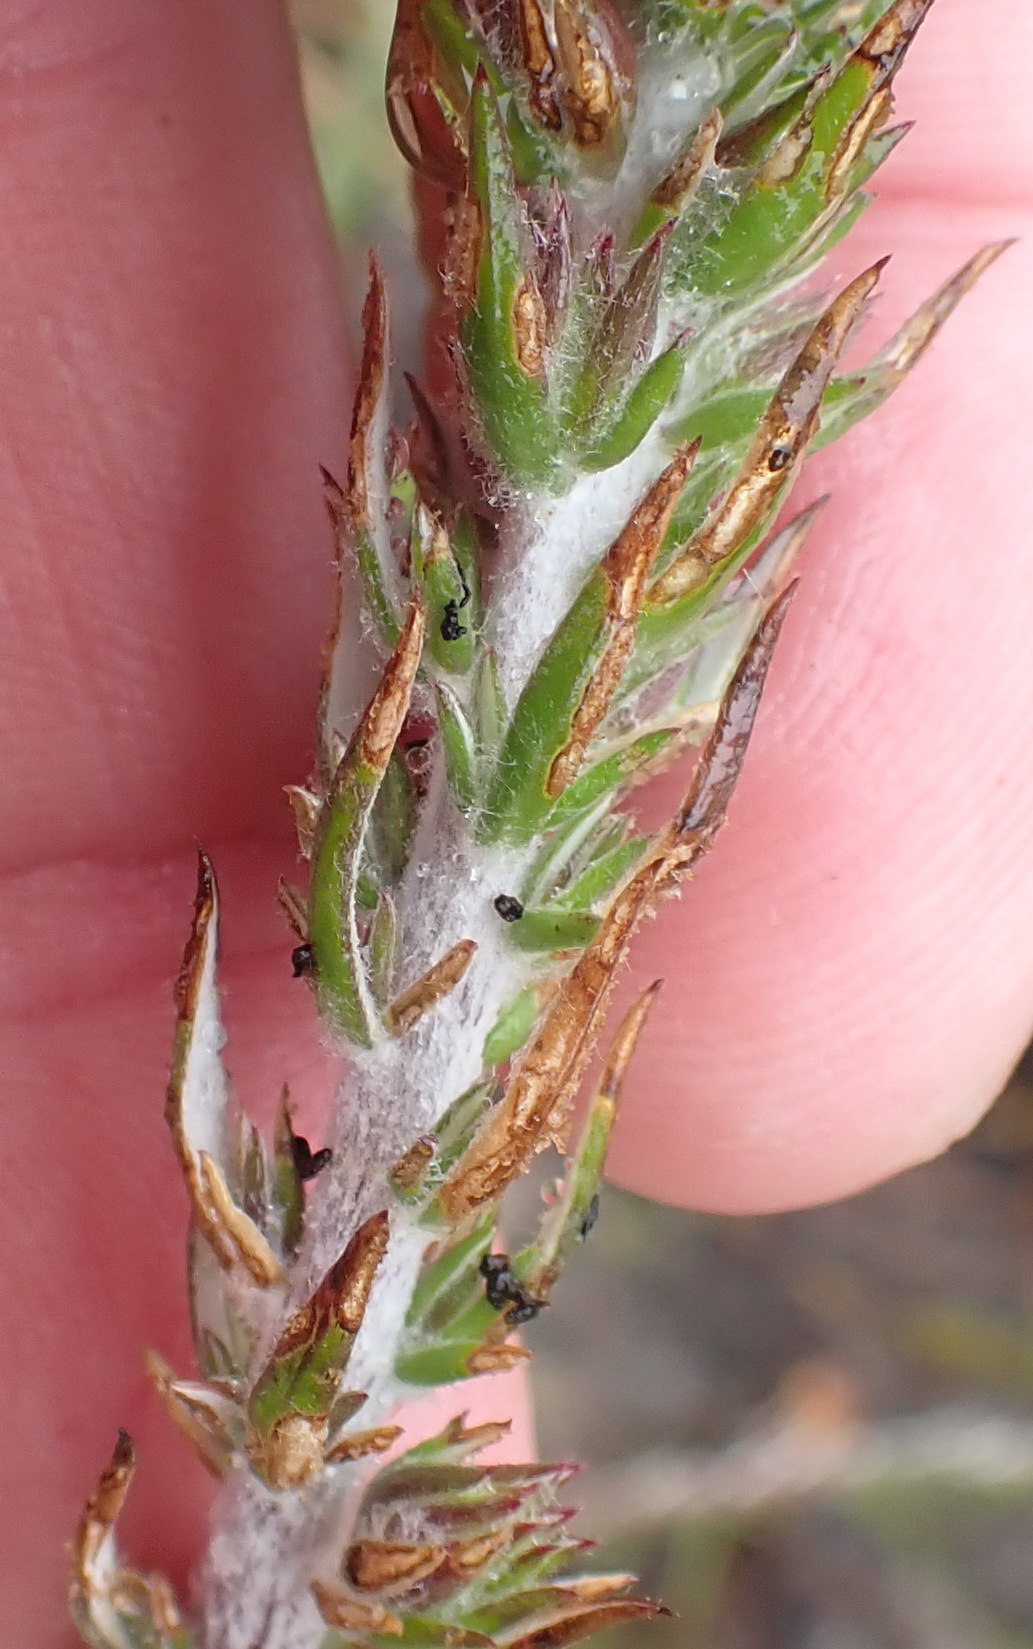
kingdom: Plantae
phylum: Tracheophyta
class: Magnoliopsida
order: Asterales
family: Asteraceae
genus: Metalasia
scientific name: Metalasia pungens
